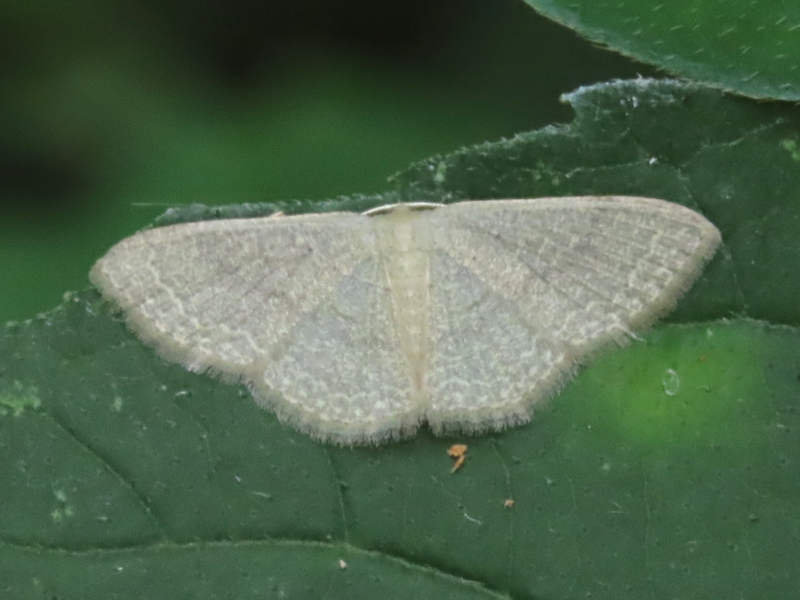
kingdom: Animalia
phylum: Arthropoda
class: Insecta
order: Lepidoptera
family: Geometridae
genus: Pleuroprucha
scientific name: Pleuroprucha insulsaria
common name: Common tan wave
